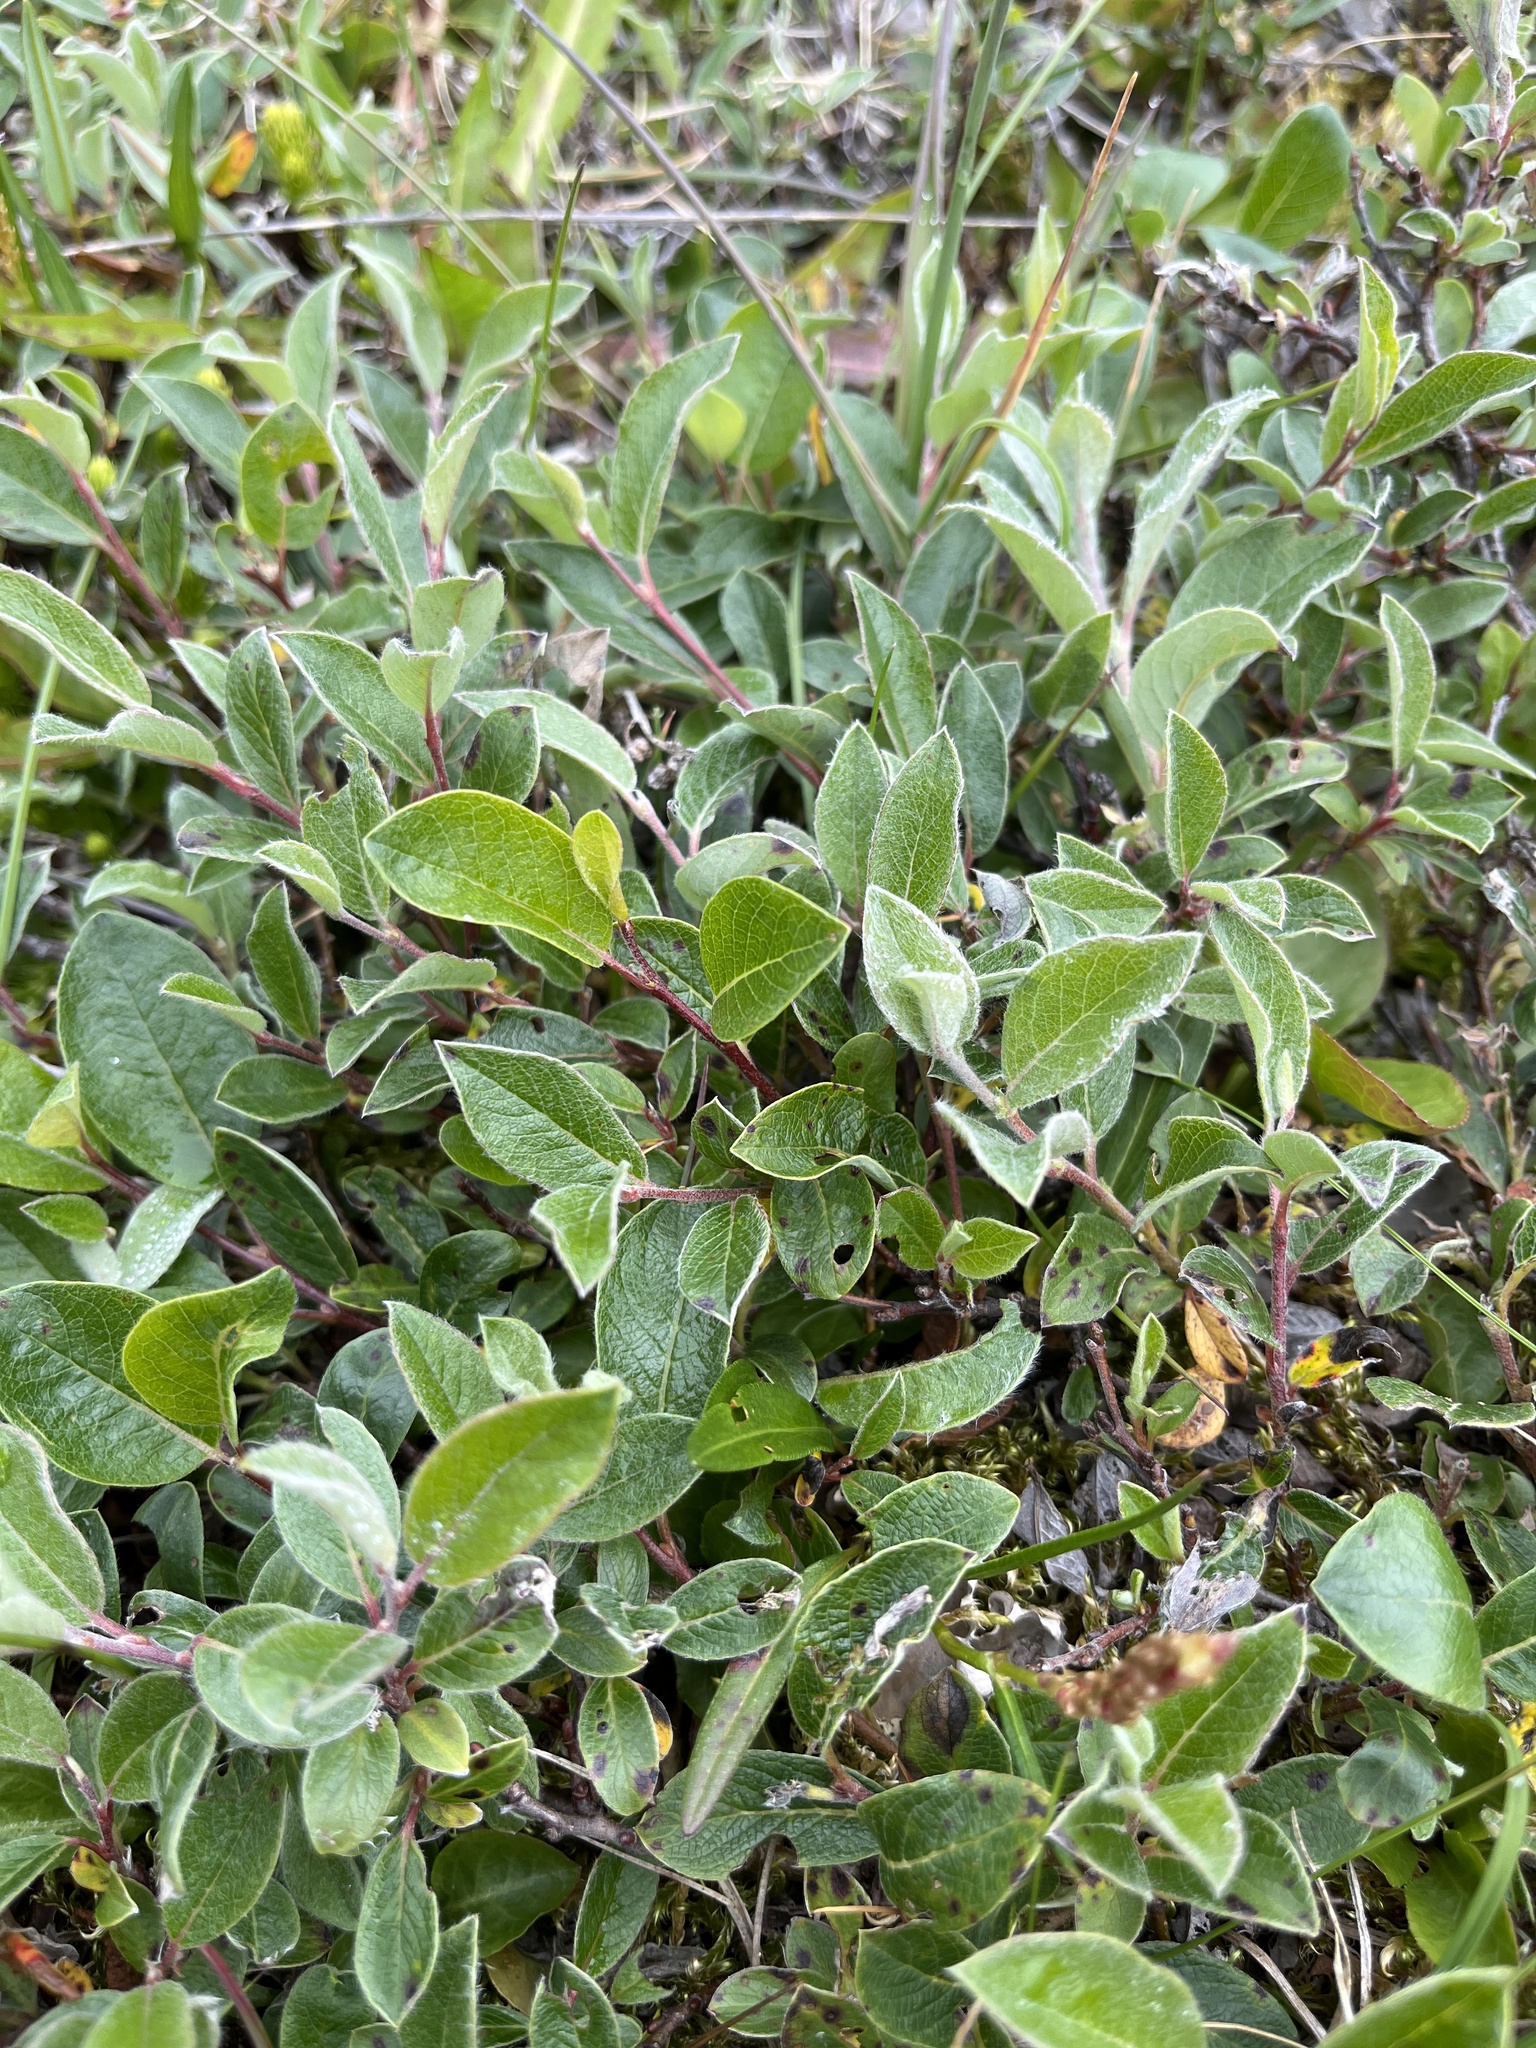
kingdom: Plantae
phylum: Tracheophyta
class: Magnoliopsida
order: Malpighiales
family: Salicaceae
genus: Salix
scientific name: Salix glauca
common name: Glaucous willow
